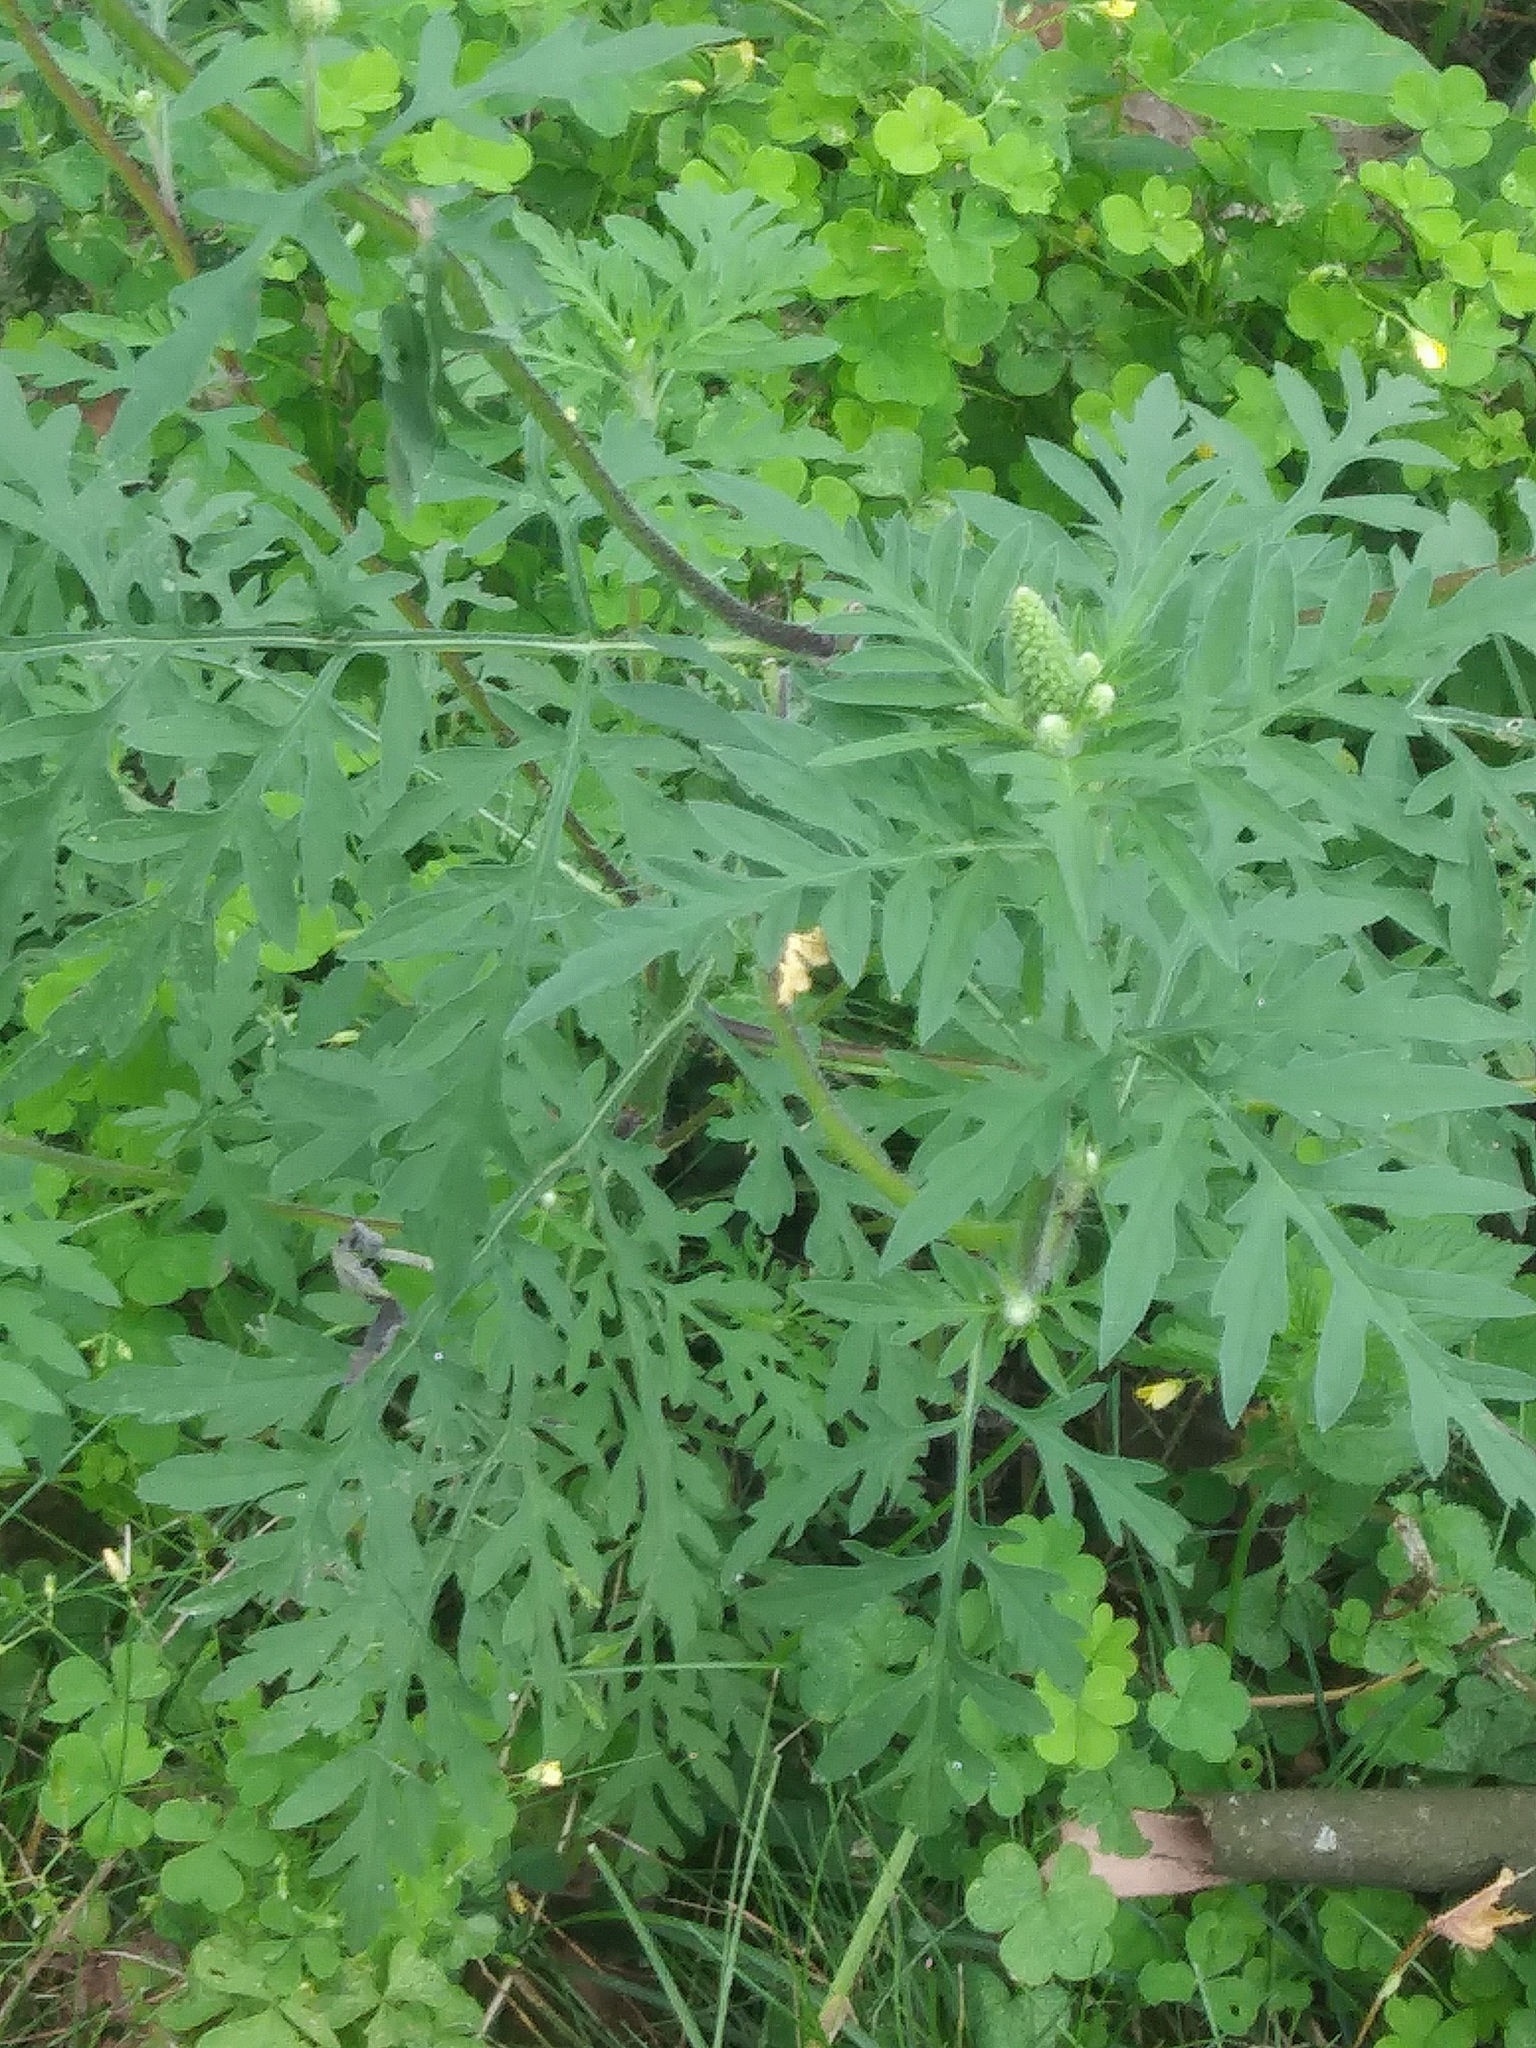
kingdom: Plantae
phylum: Tracheophyta
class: Magnoliopsida
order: Asterales
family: Asteraceae
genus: Ambrosia
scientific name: Ambrosia artemisiifolia
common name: Annual ragweed
